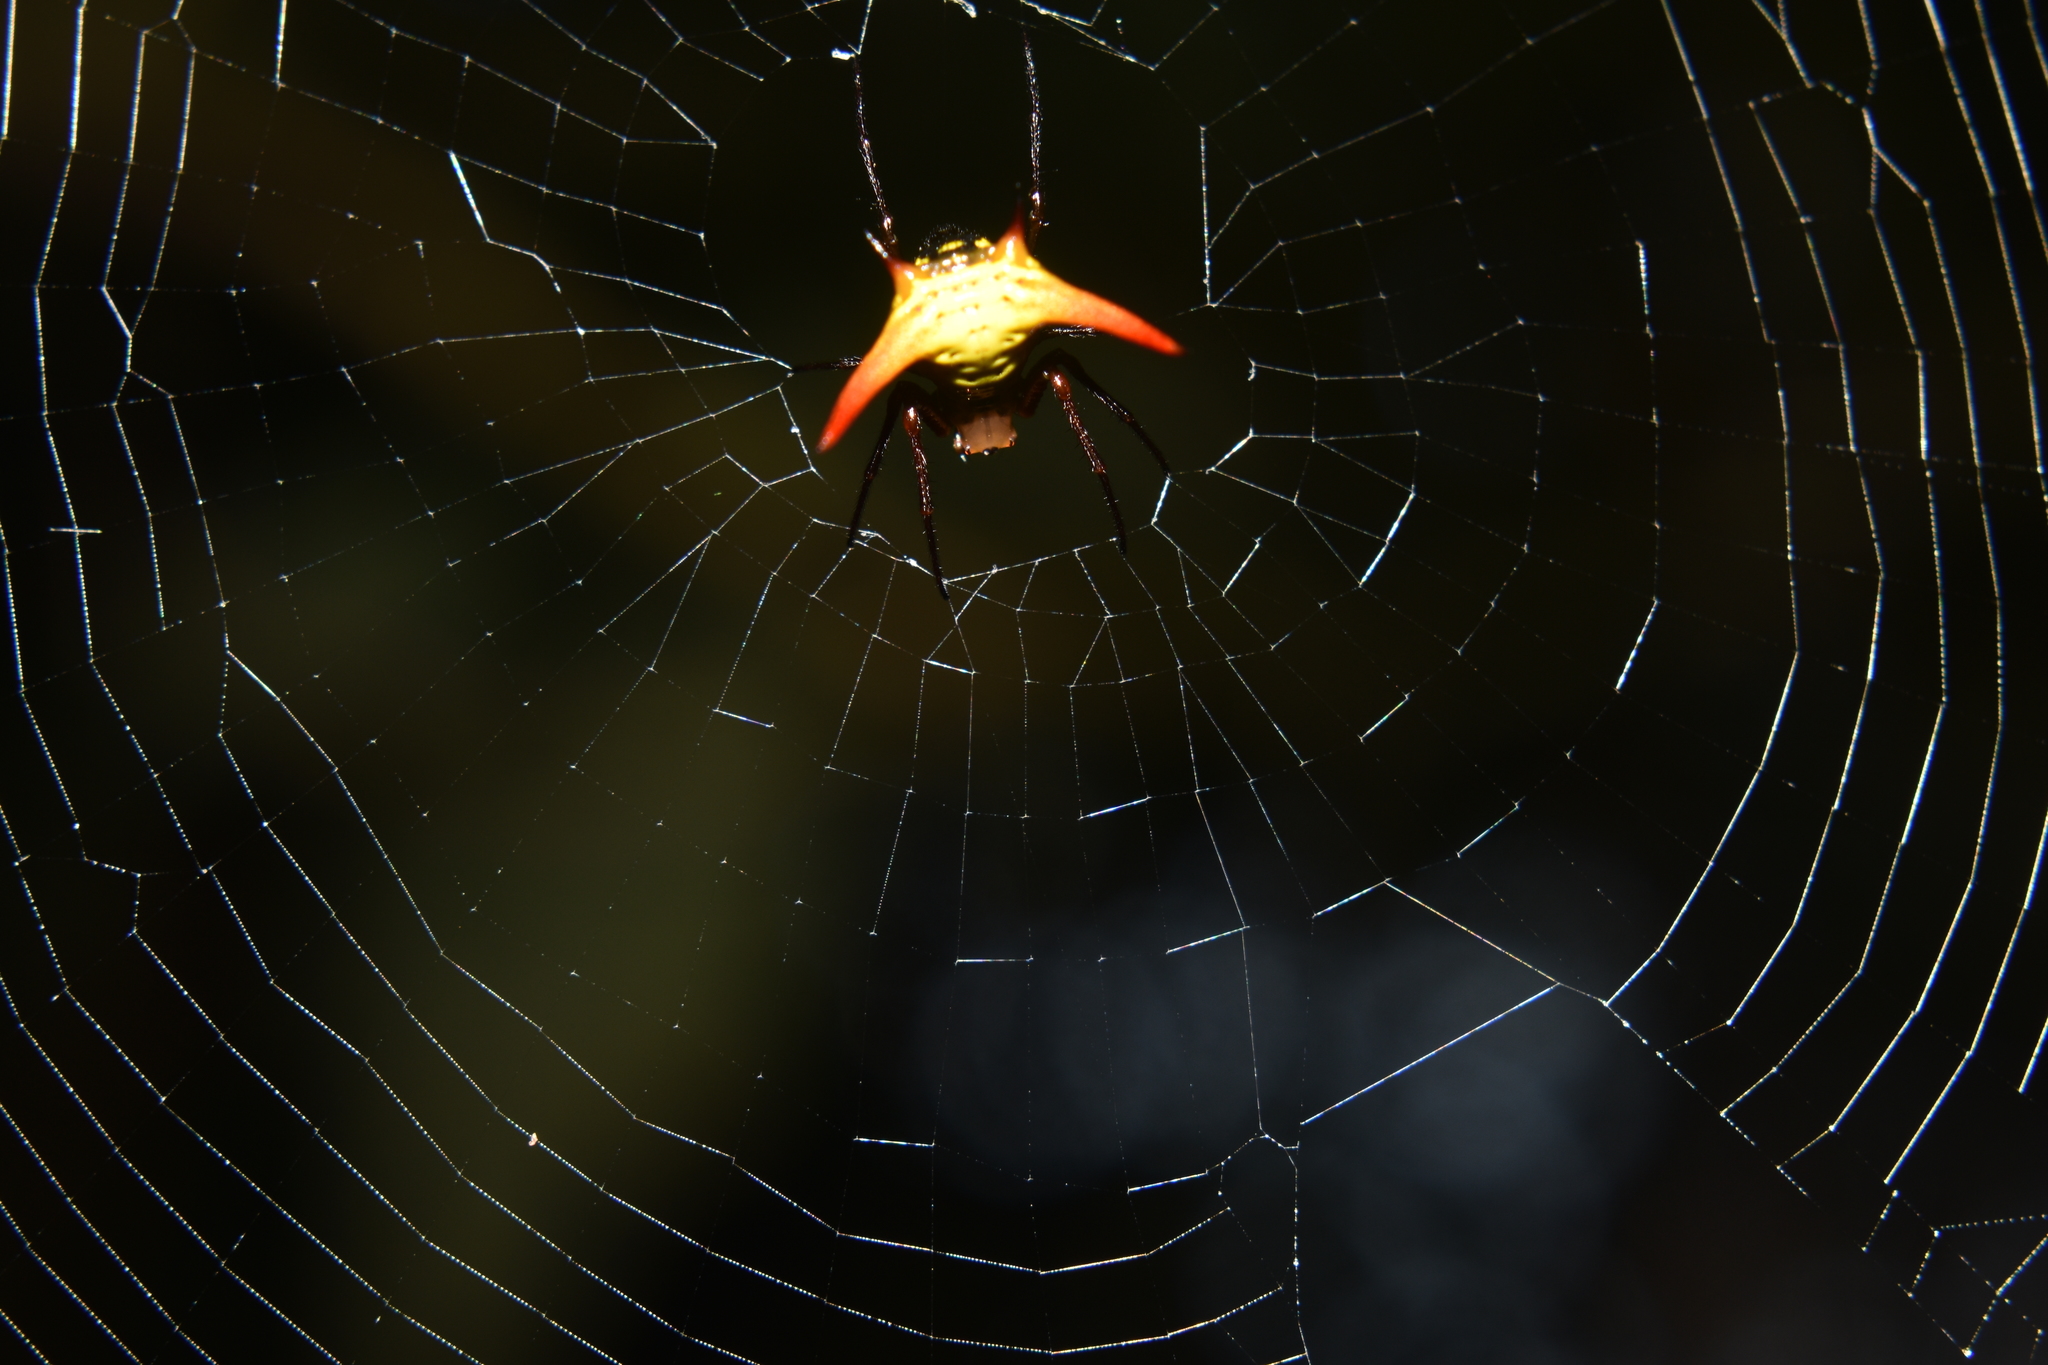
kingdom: Animalia
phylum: Arthropoda
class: Arachnida
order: Araneae
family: Araneidae
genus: Micrathena
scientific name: Micrathena guerini
